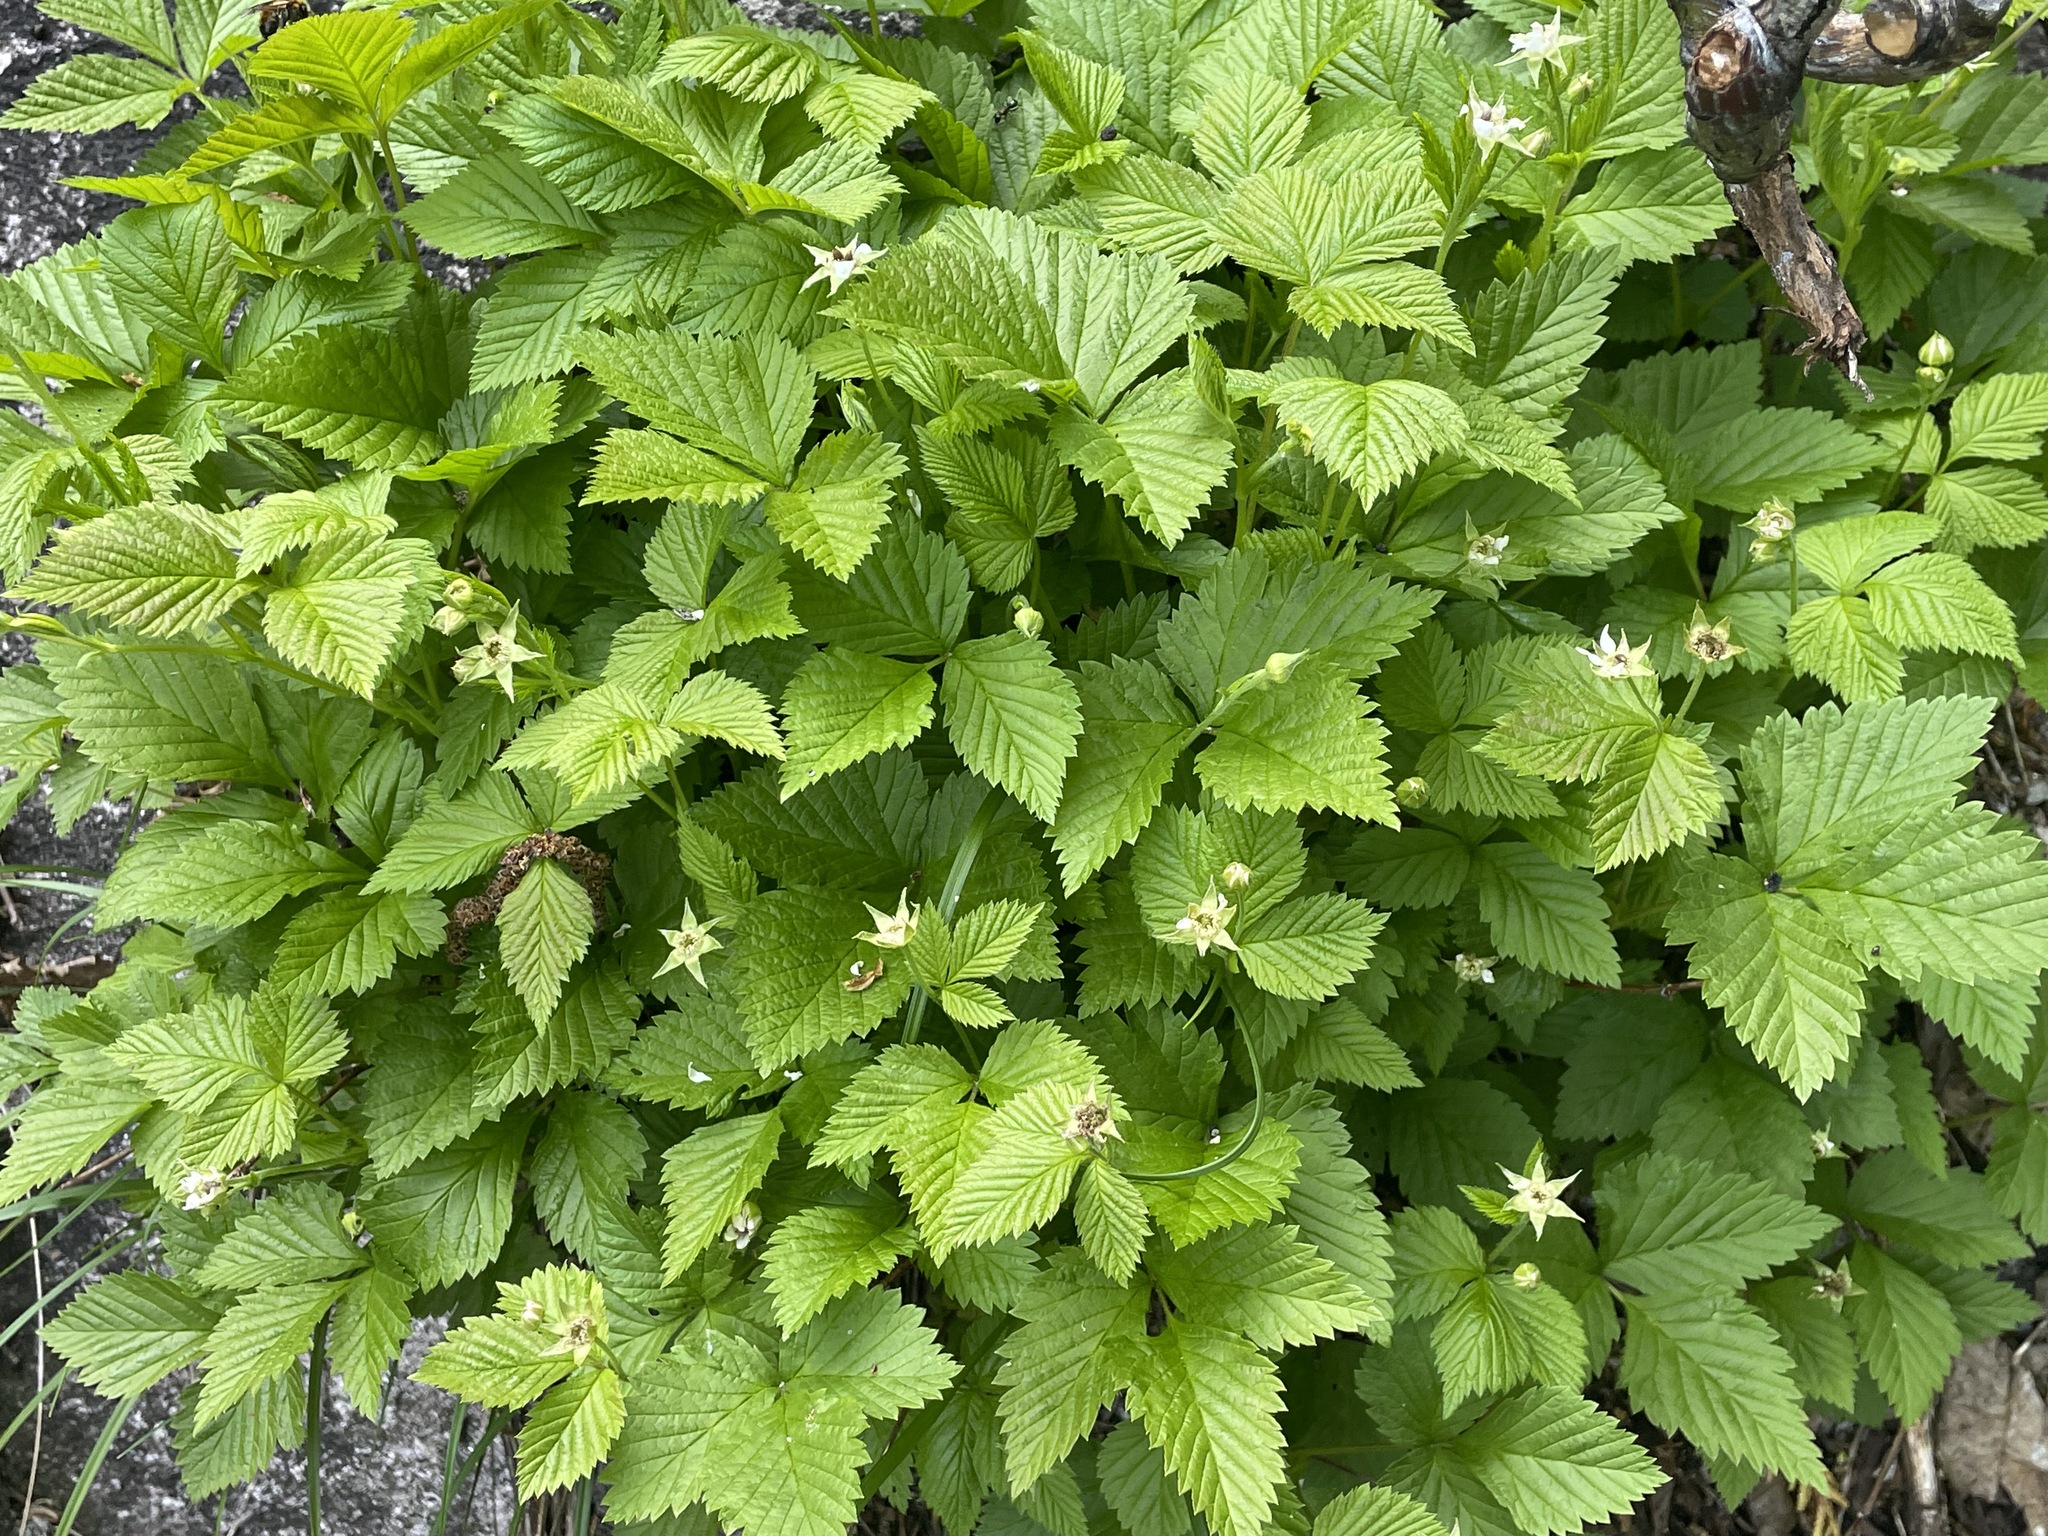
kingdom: Plantae
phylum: Tracheophyta
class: Magnoliopsida
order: Rosales
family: Rosaceae
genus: Rubus
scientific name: Rubus pubescens
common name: Dwarf raspberry
